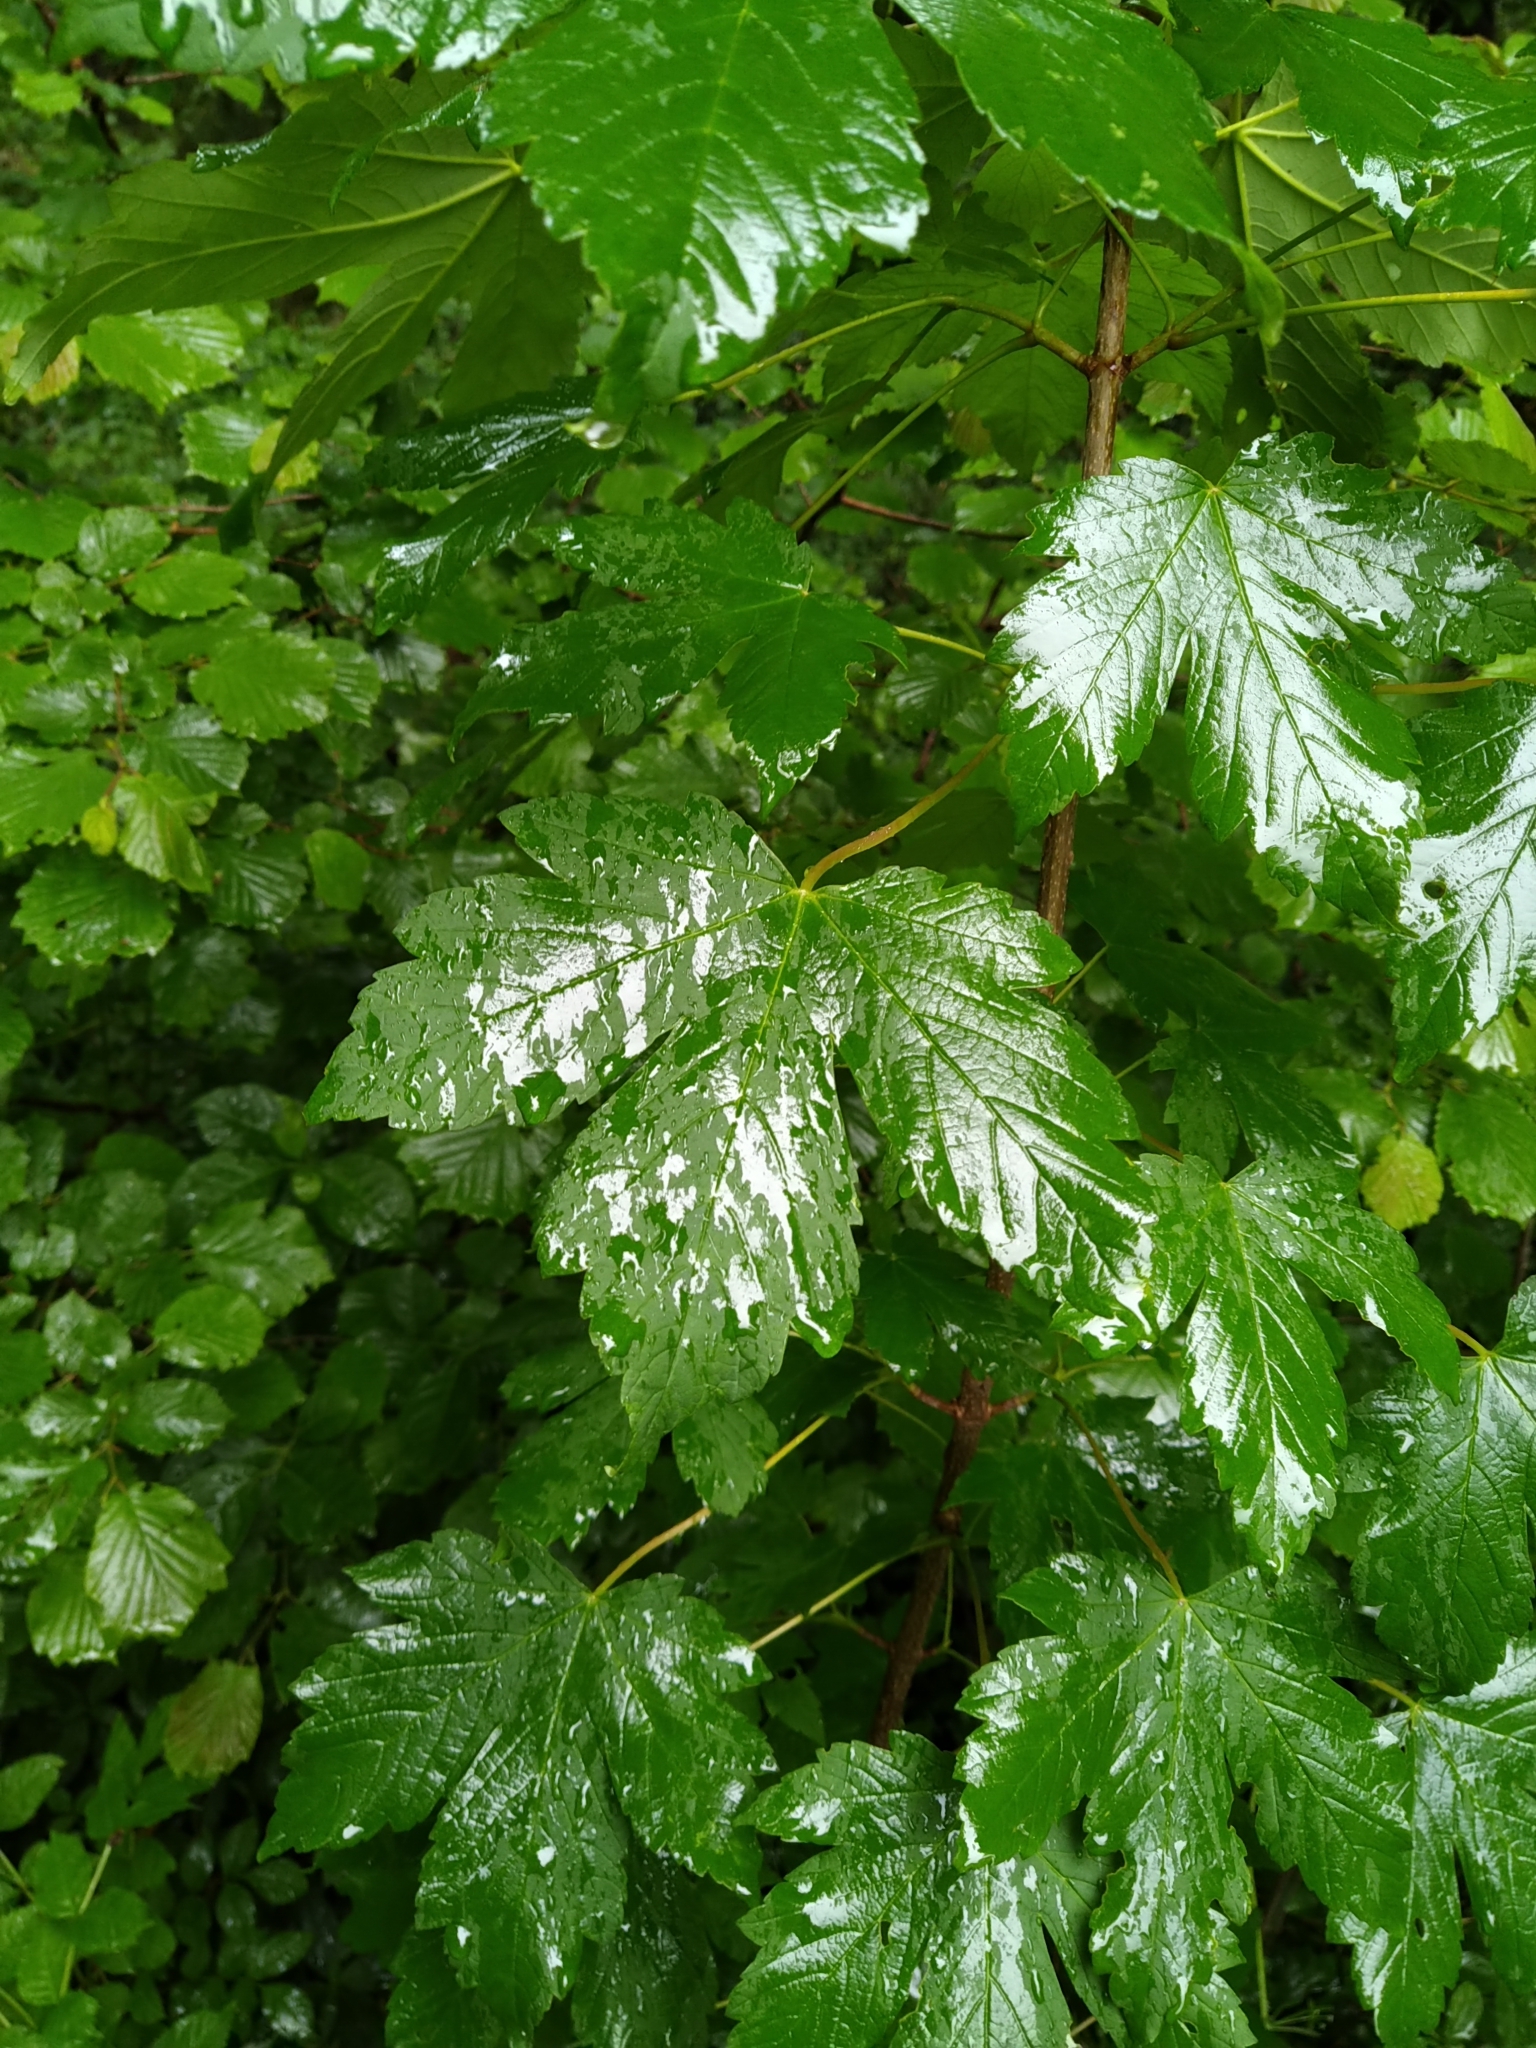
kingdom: Plantae
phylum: Tracheophyta
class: Magnoliopsida
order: Sapindales
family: Sapindaceae
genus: Acer
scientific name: Acer pseudoplatanus
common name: Sycamore
